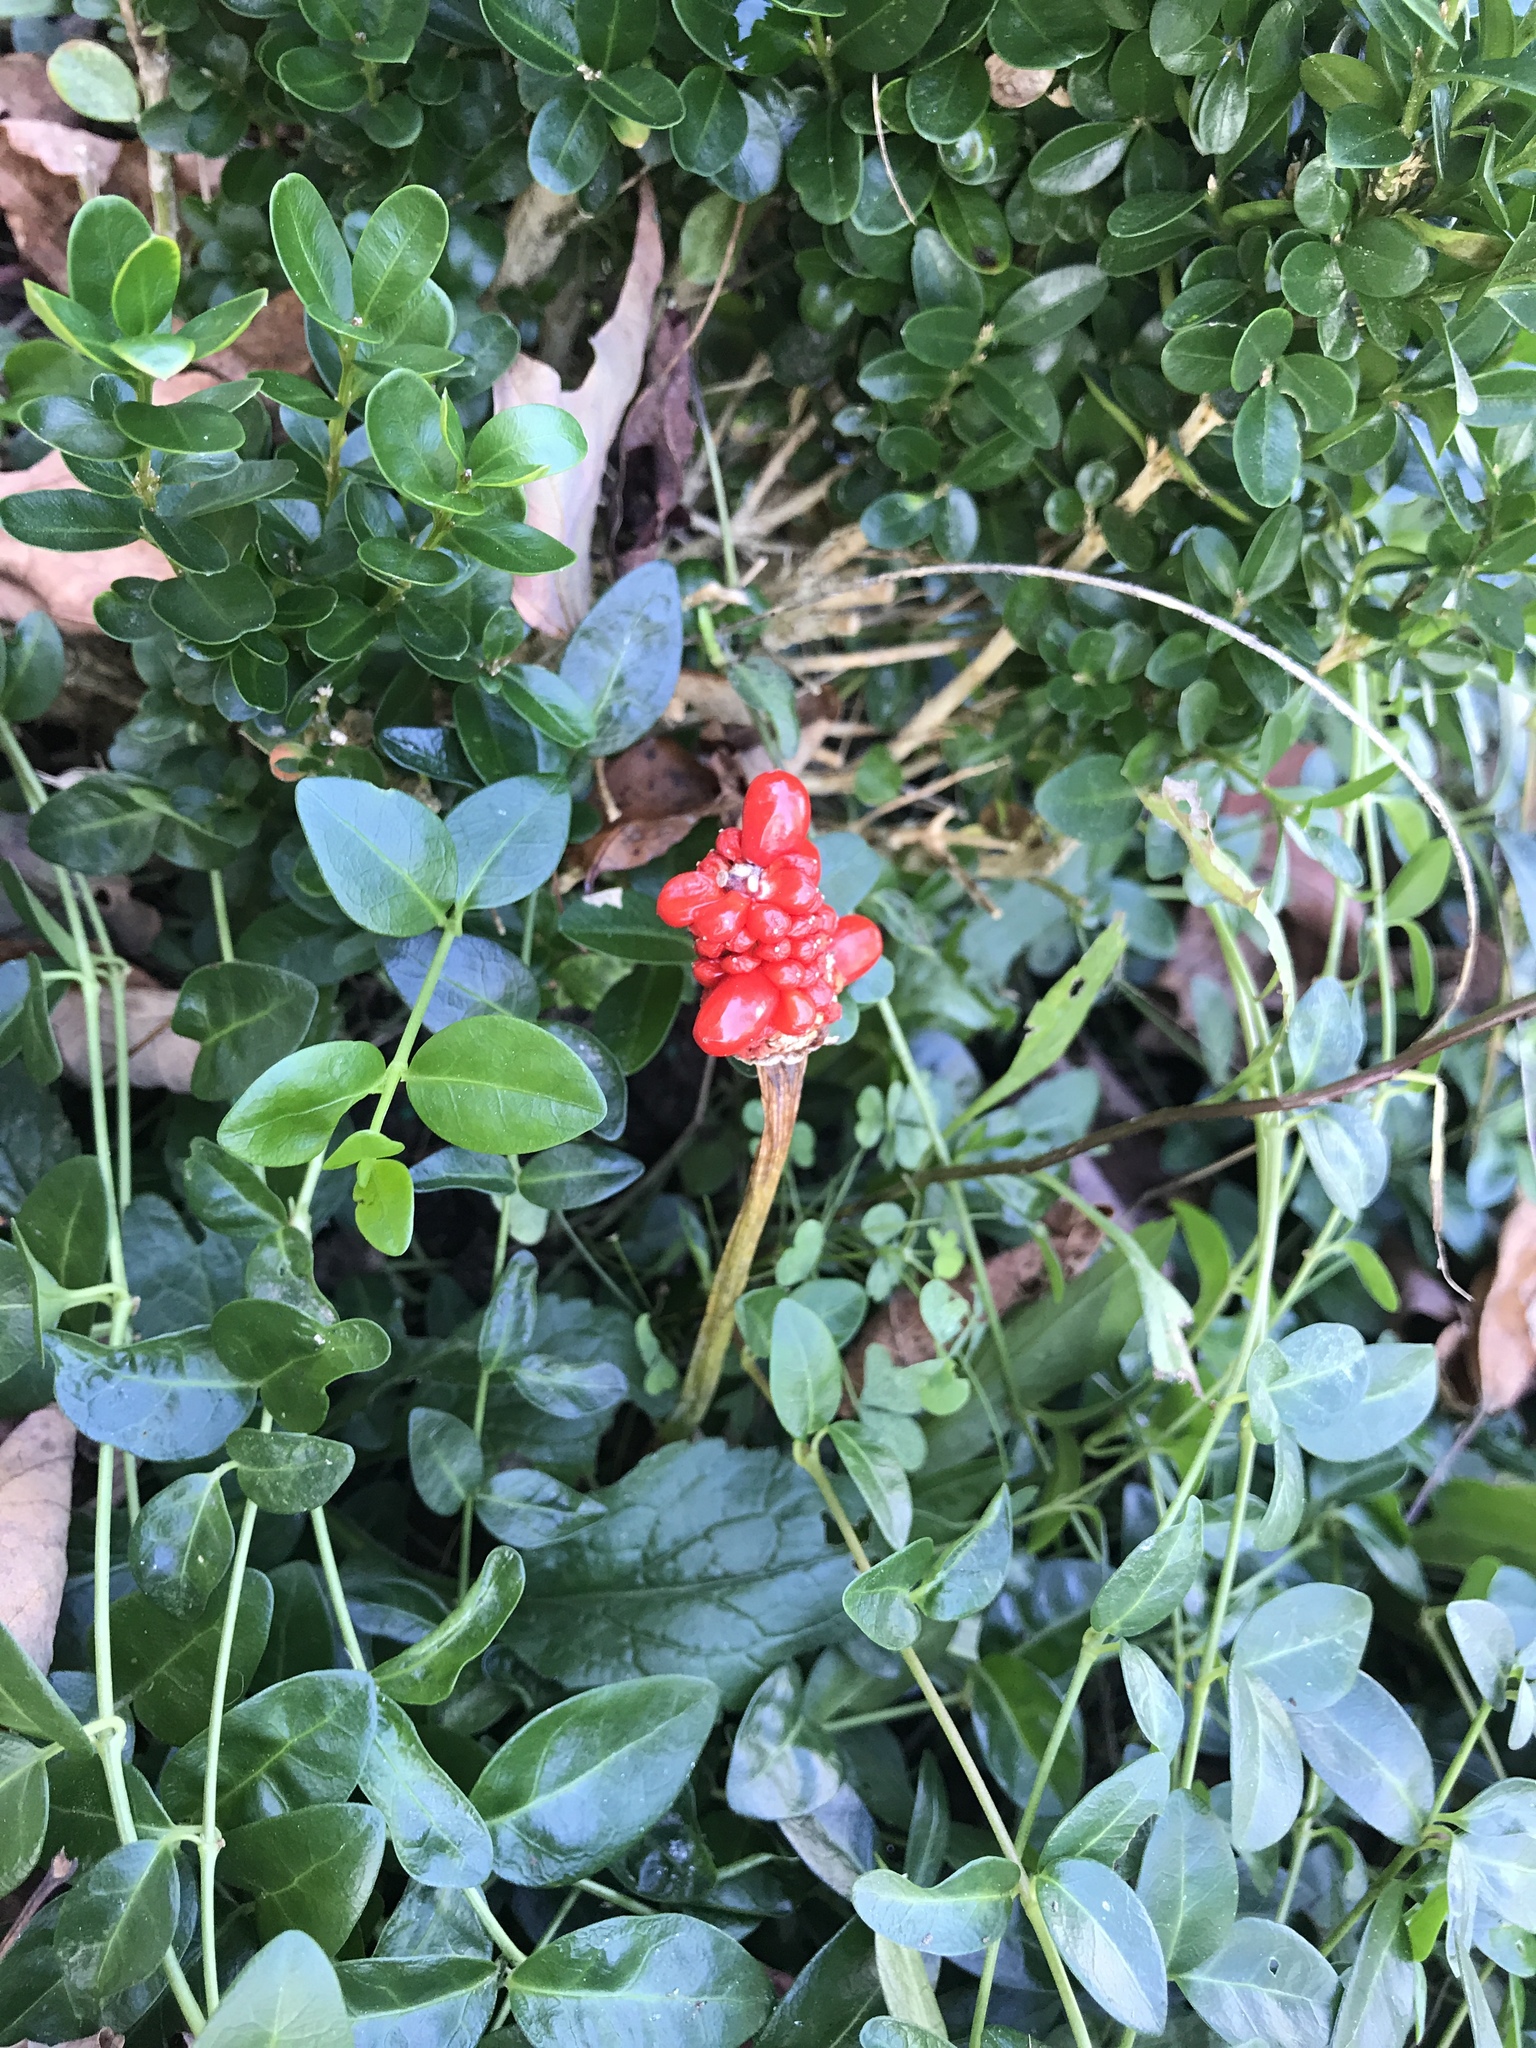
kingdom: Plantae
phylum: Tracheophyta
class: Liliopsida
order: Alismatales
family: Araceae
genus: Arisaema
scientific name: Arisaema triphyllum
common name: Jack-in-the-pulpit
